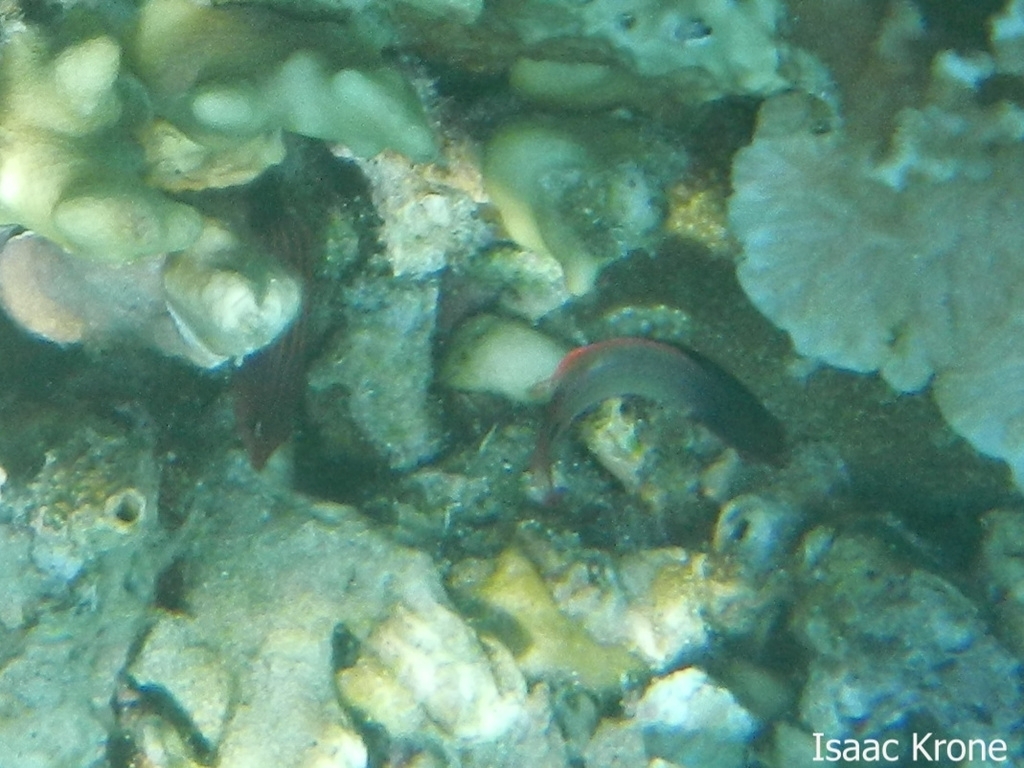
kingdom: Animalia
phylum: Chordata
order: Perciformes
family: Labridae
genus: Pseudocheilinus
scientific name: Pseudocheilinus hexataenia
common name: Sixline wrasse
